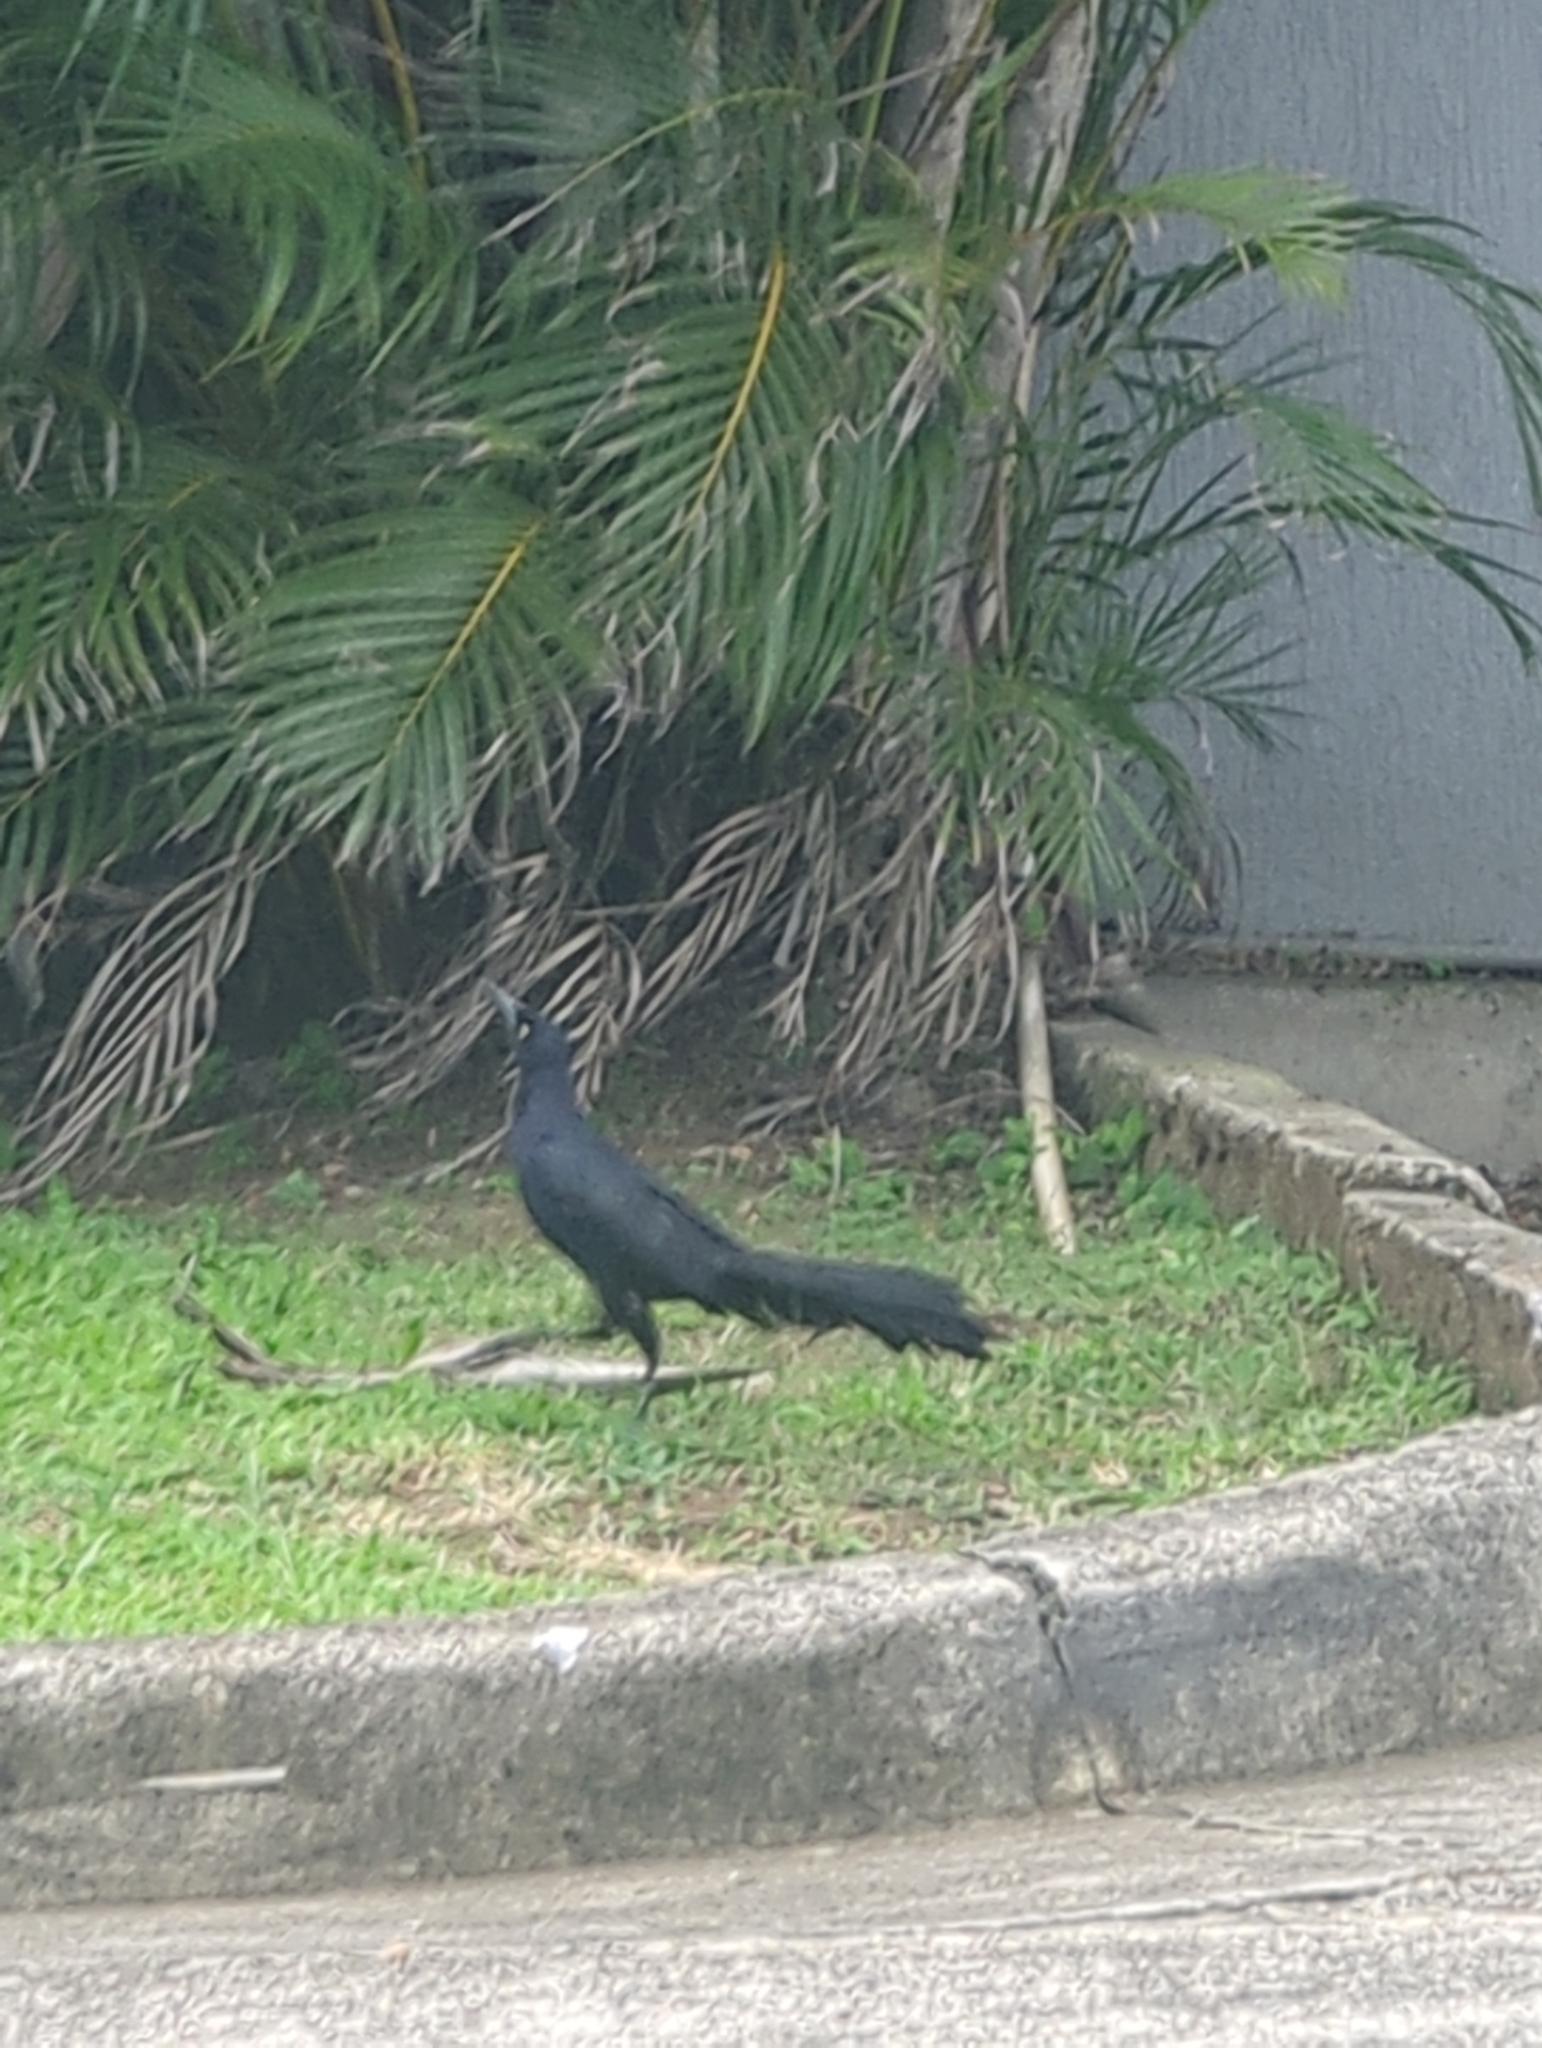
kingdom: Animalia
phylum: Chordata
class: Aves
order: Passeriformes
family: Icteridae
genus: Quiscalus
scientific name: Quiscalus mexicanus
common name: Great-tailed grackle
